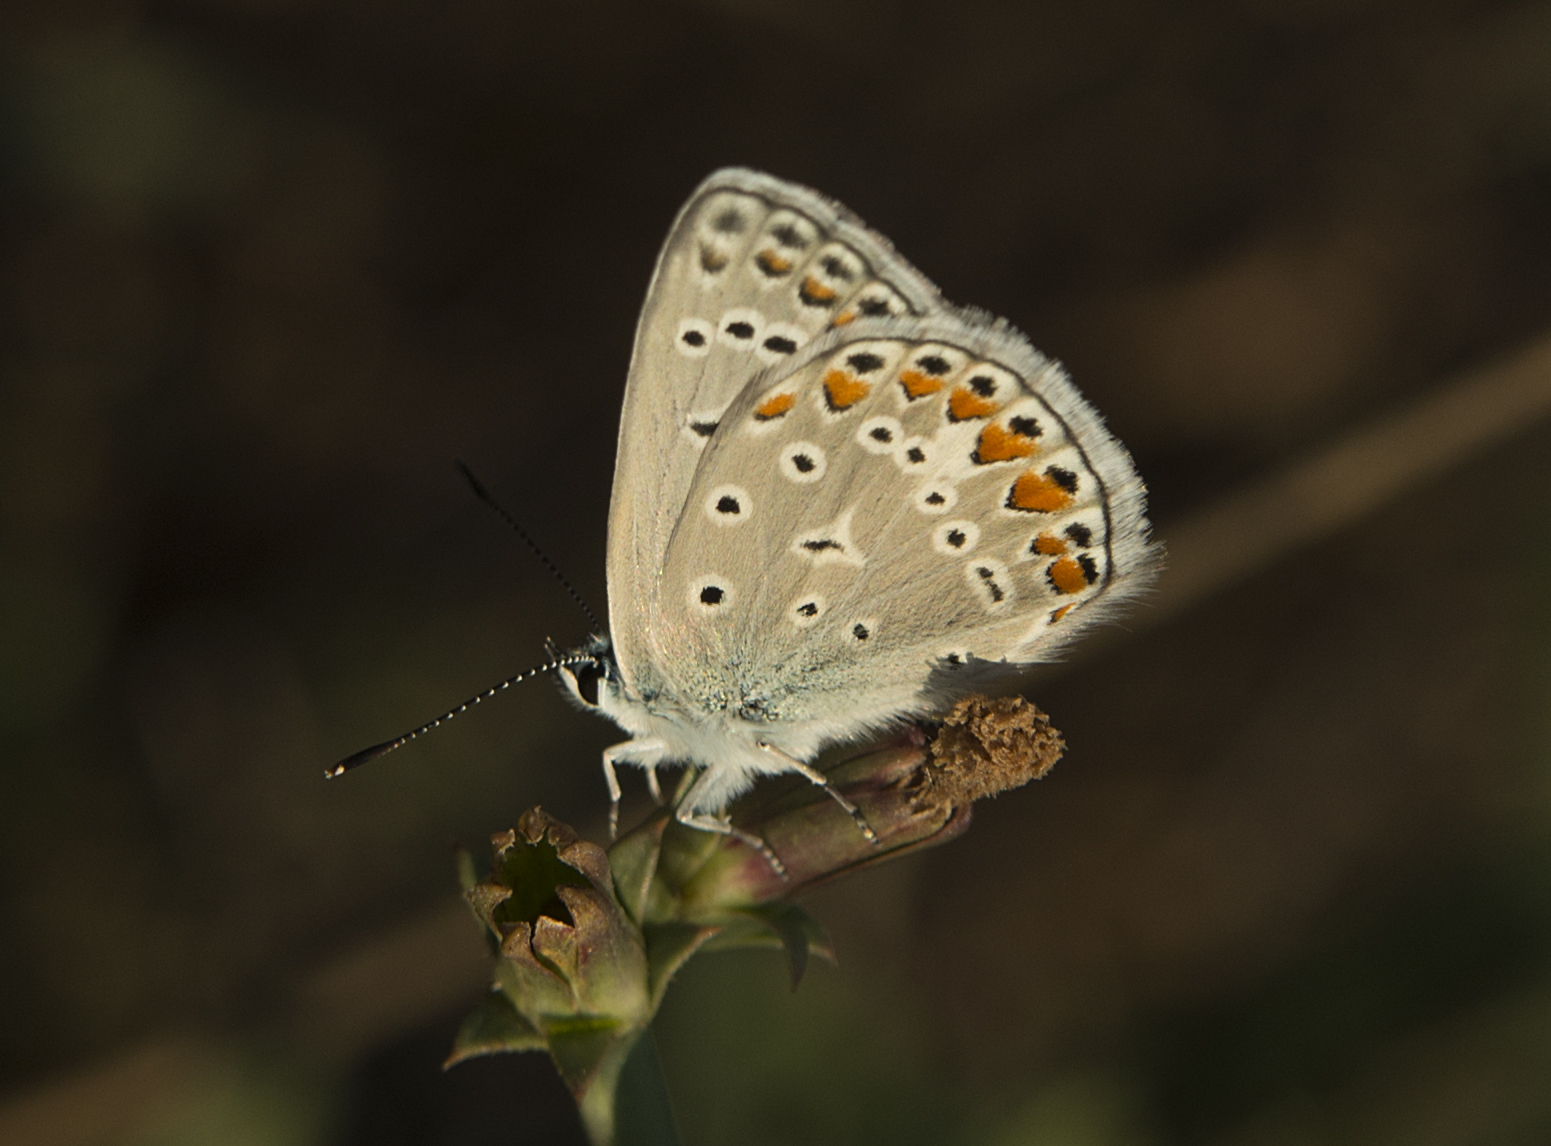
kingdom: Animalia
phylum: Arthropoda
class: Insecta
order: Lepidoptera
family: Lycaenidae
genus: Polyommatus
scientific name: Polyommatus icarus
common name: Common blue
